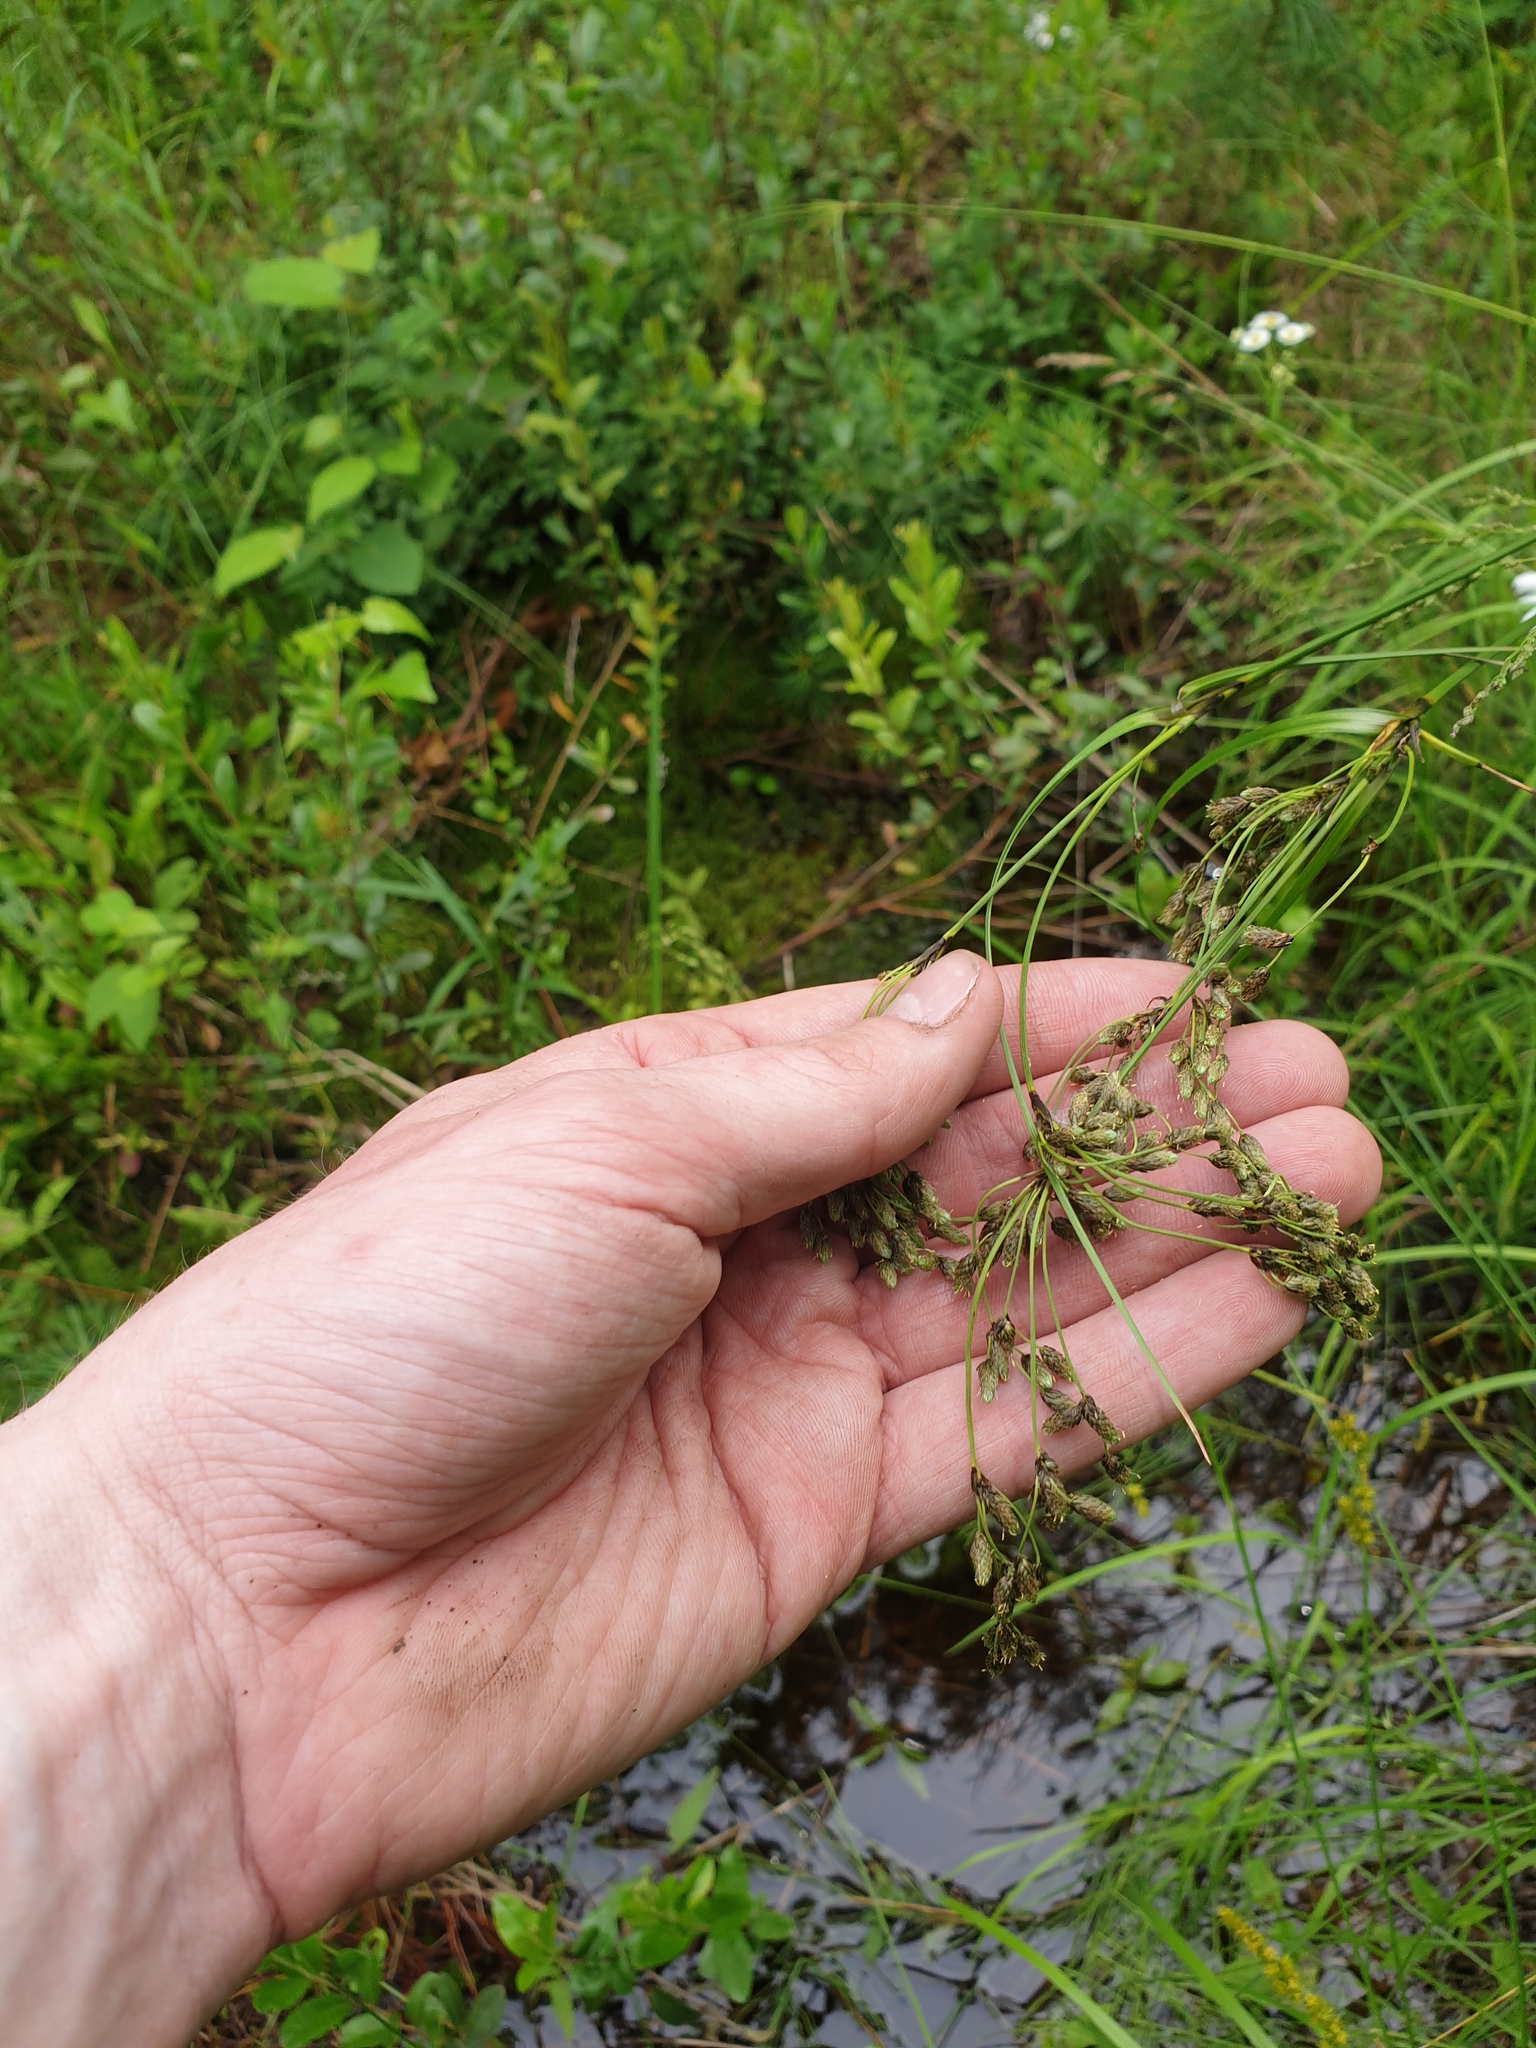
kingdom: Plantae
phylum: Tracheophyta
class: Liliopsida
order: Poales
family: Cyperaceae
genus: Scirpus
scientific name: Scirpus atrocinctus
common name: Black-girdled bulrush
